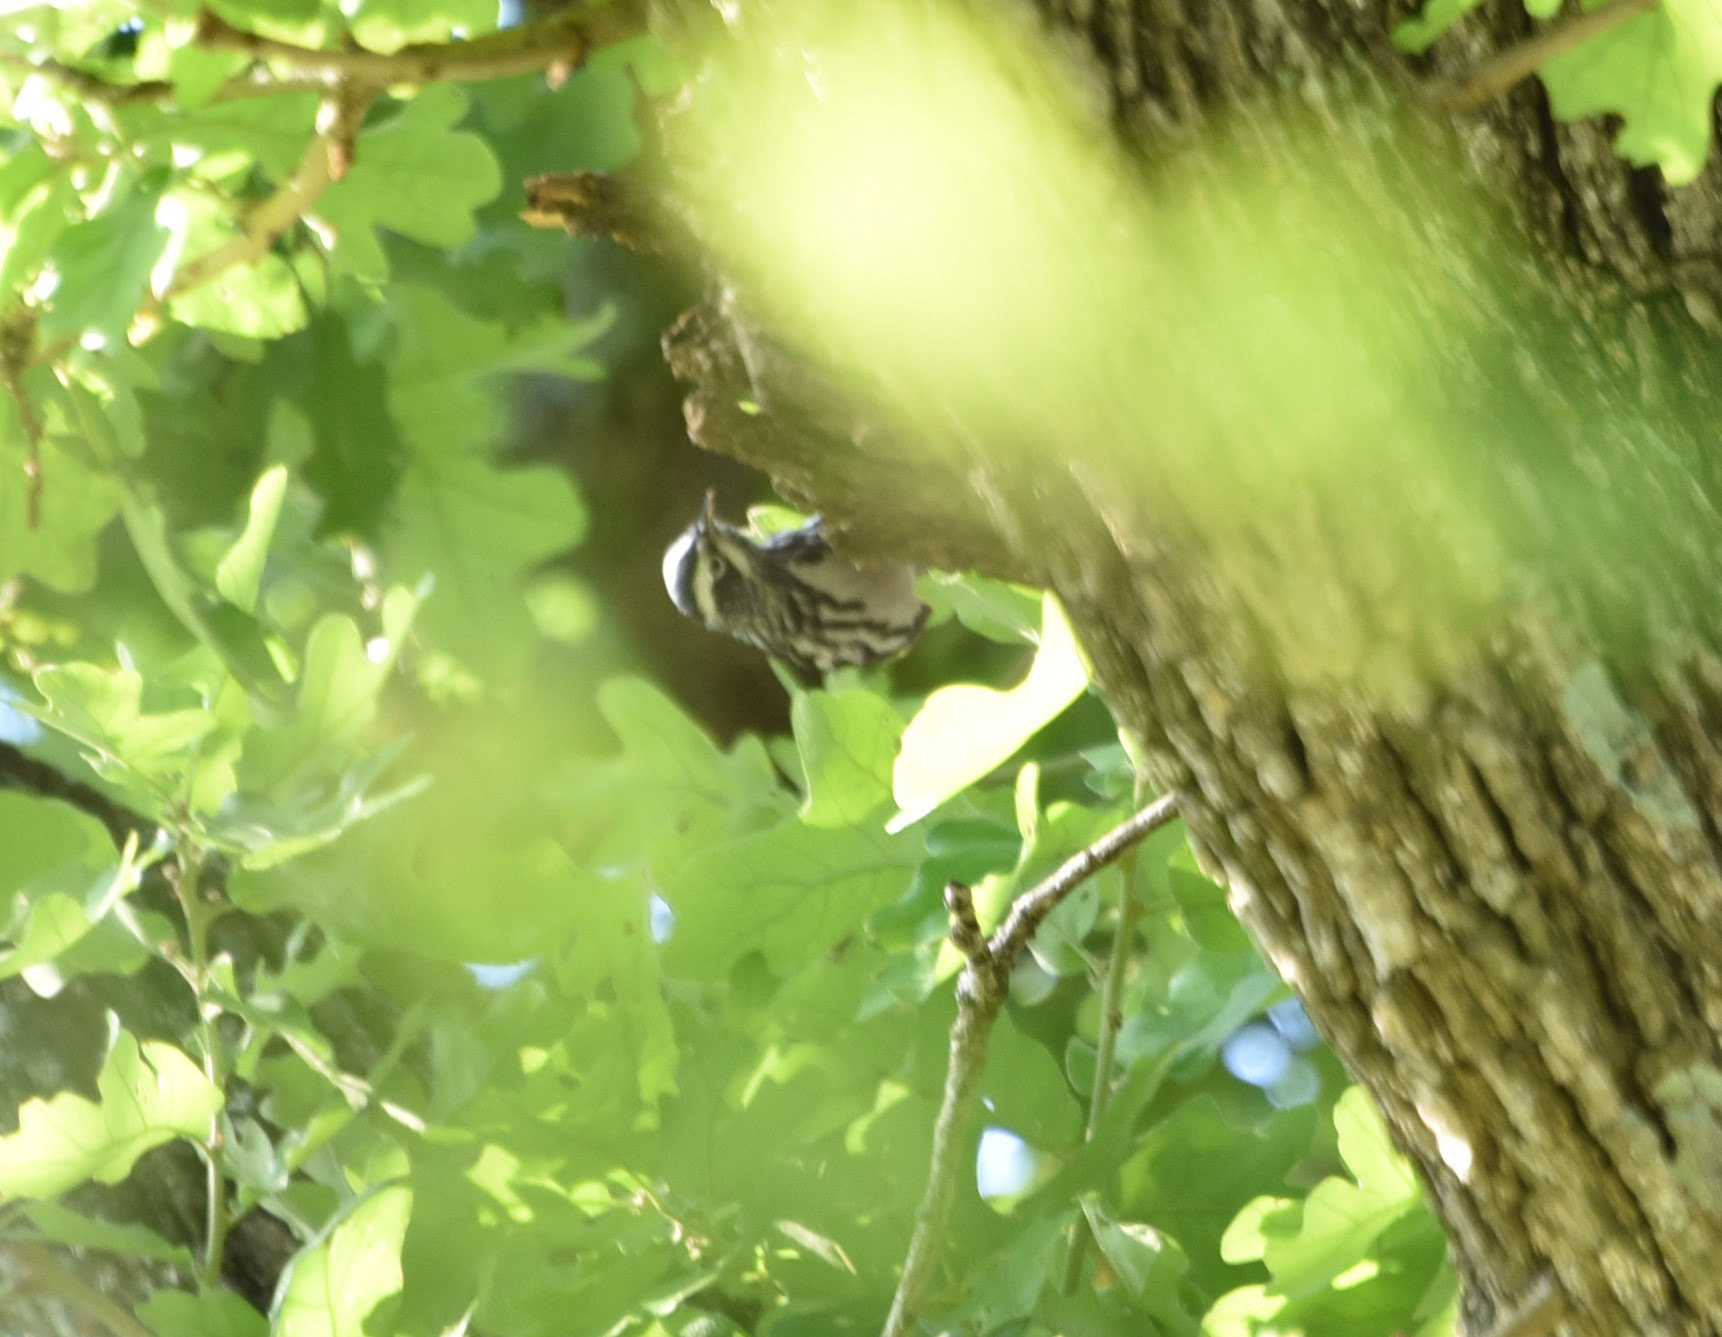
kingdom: Animalia
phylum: Chordata
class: Aves
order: Passeriformes
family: Parulidae
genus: Mniotilta
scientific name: Mniotilta varia
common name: Black-and-white warbler
